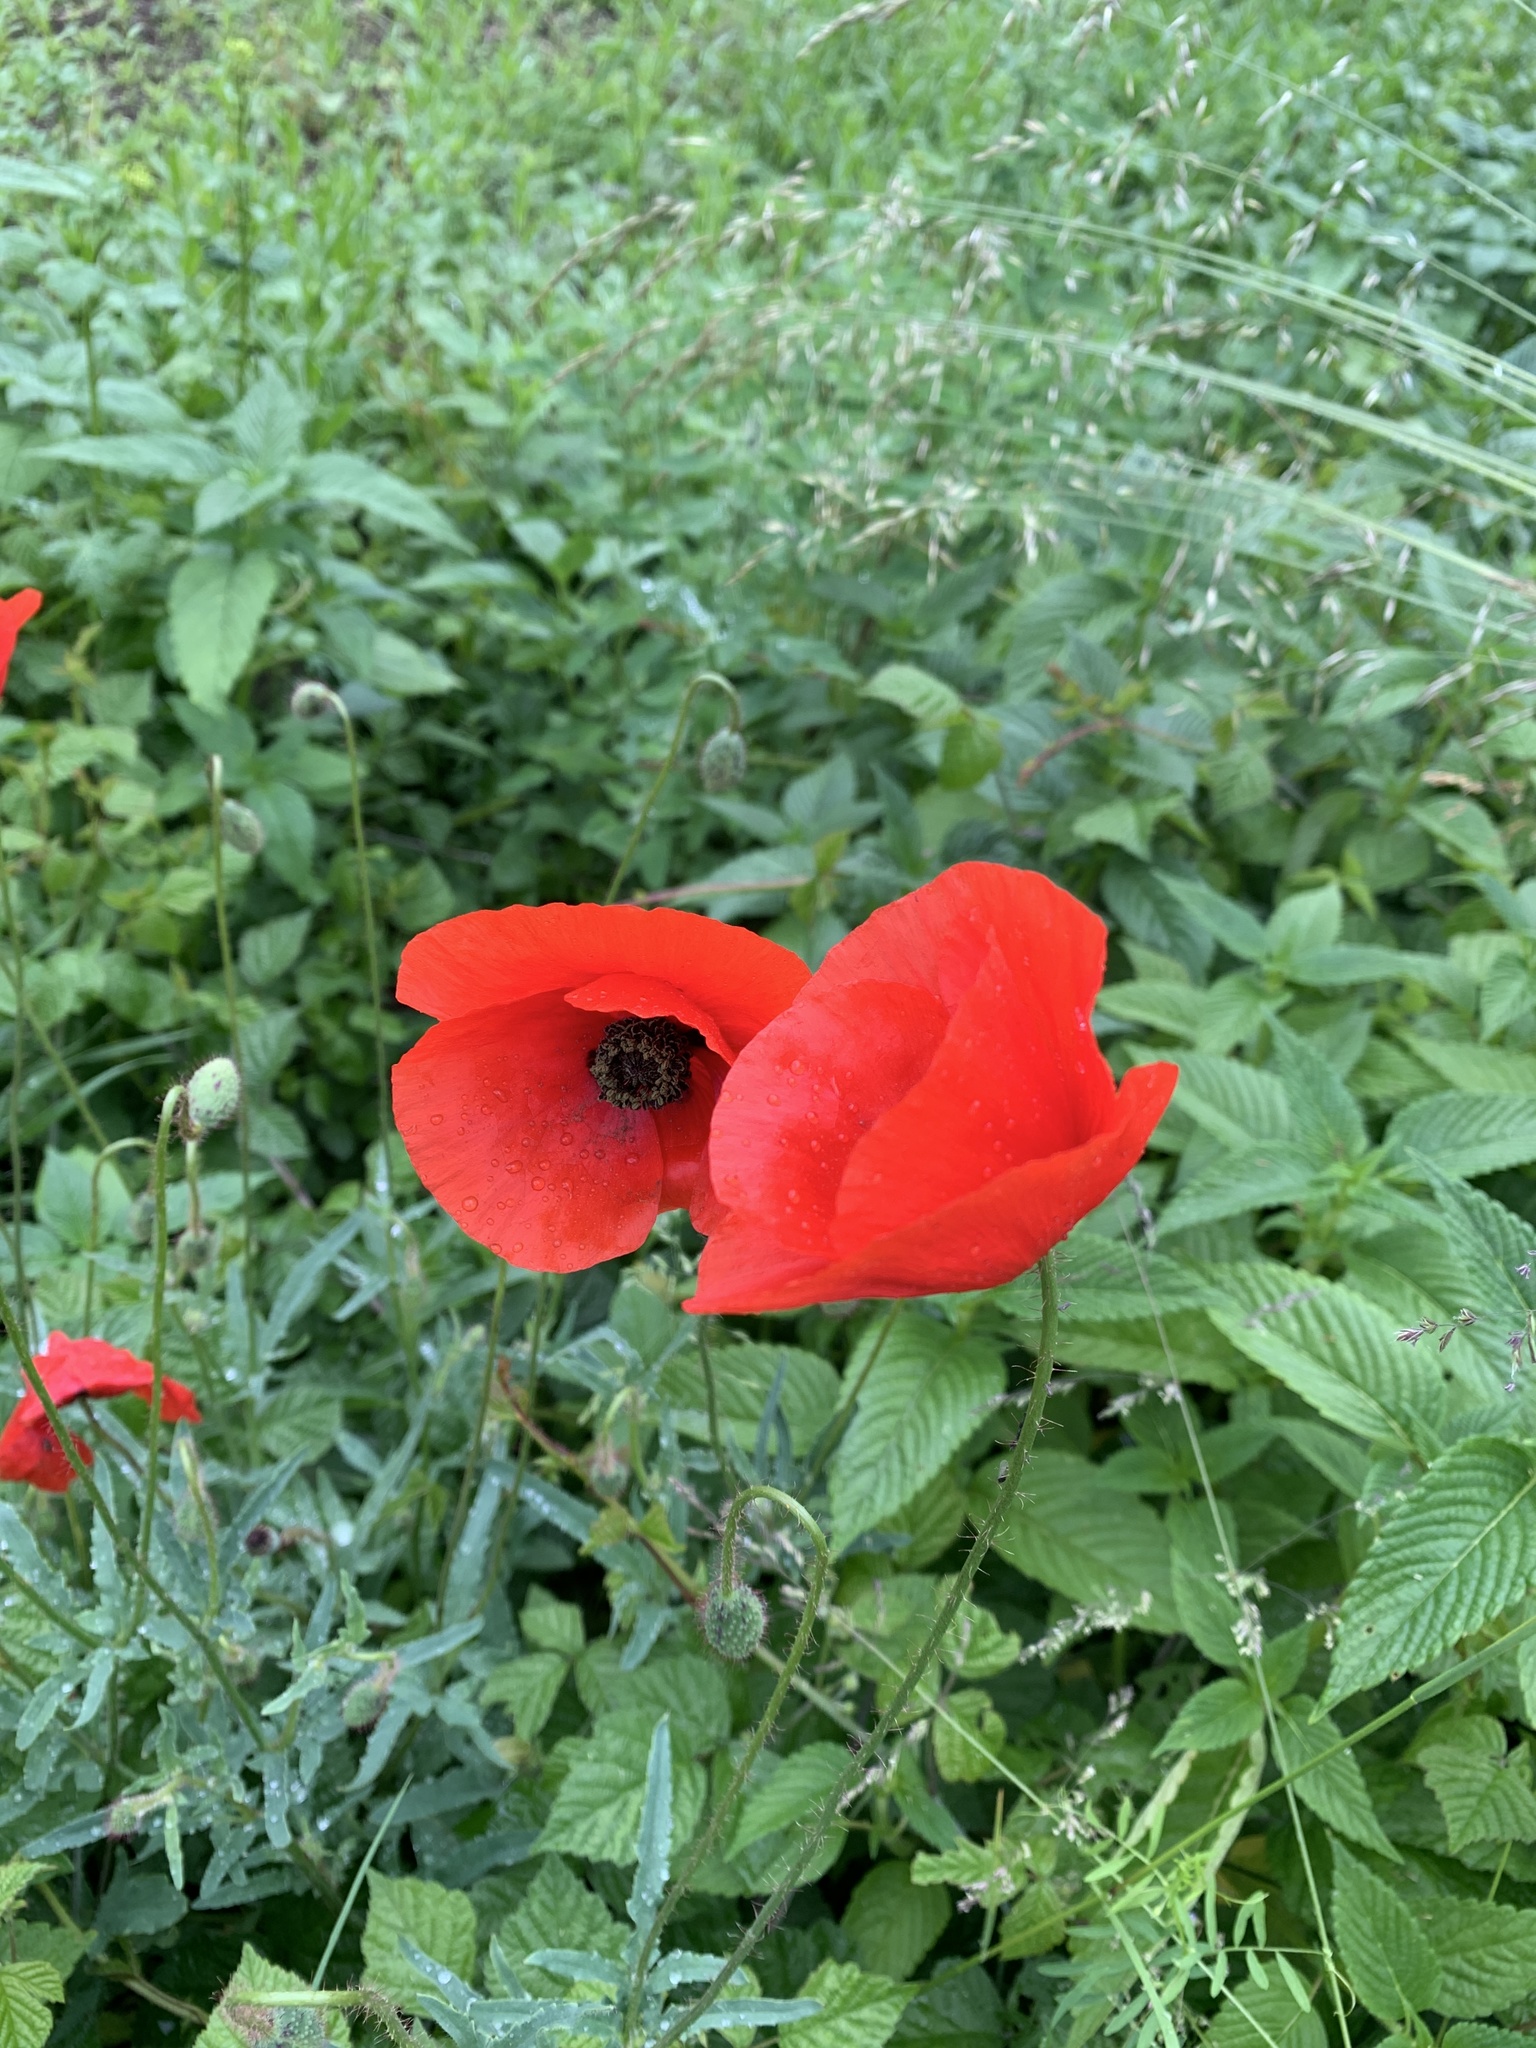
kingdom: Plantae
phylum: Tracheophyta
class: Magnoliopsida
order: Ranunculales
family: Papaveraceae
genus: Papaver
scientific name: Papaver rhoeas
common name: Corn poppy
